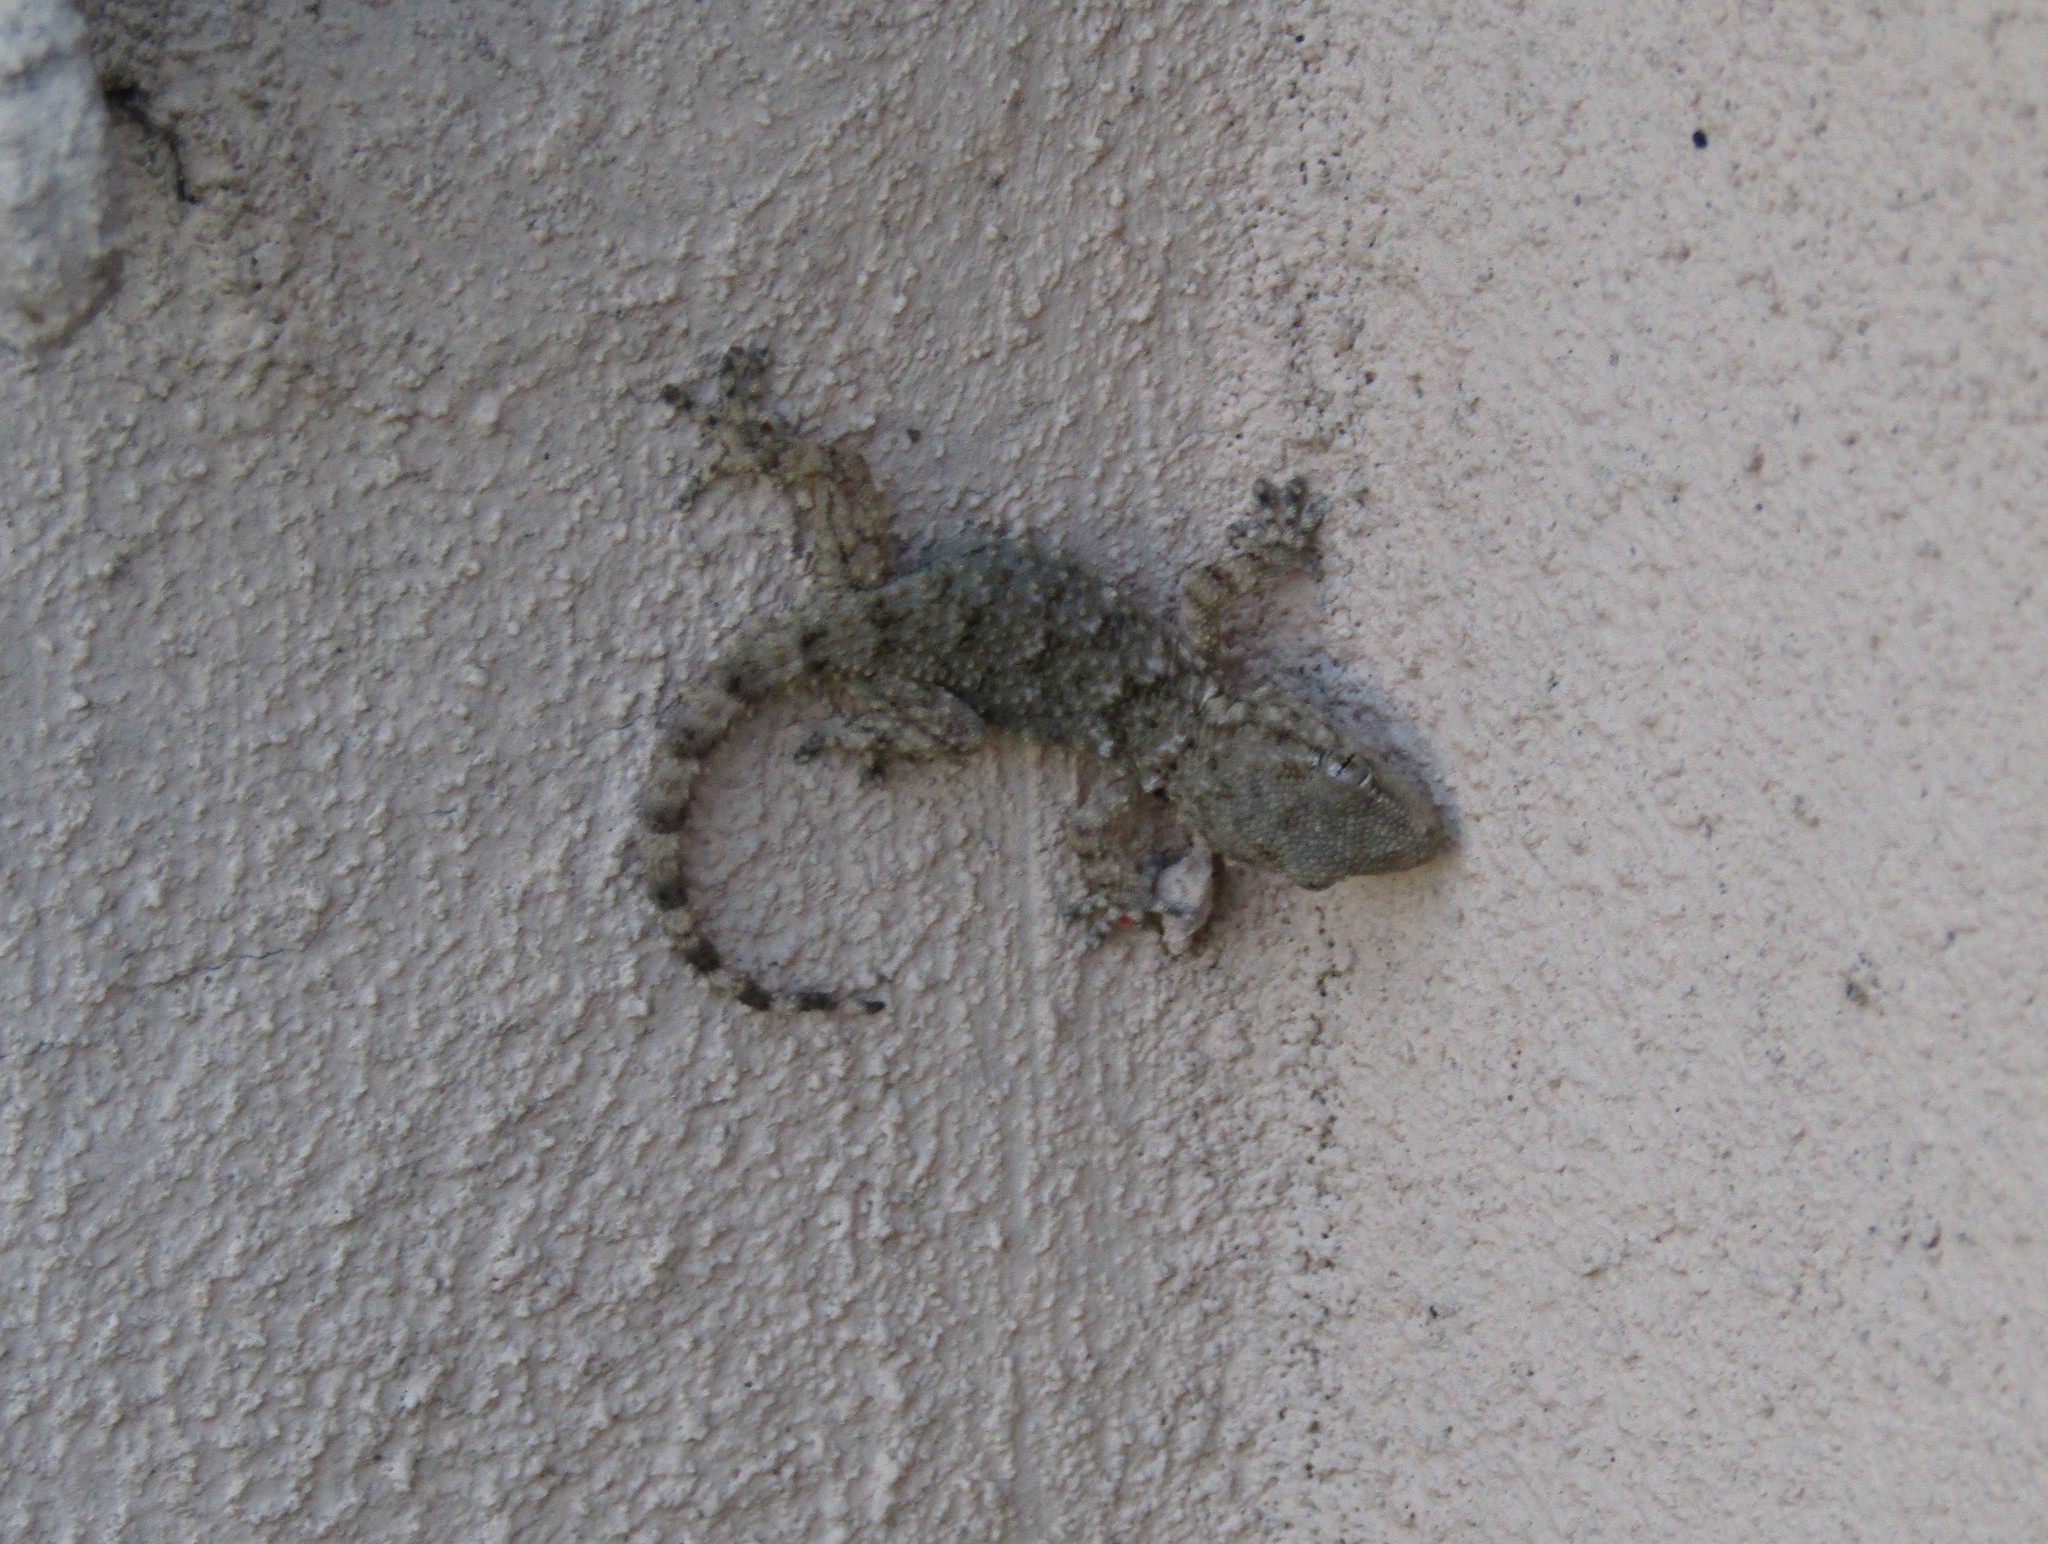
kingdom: Animalia
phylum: Chordata
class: Squamata
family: Phyllodactylidae
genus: Tarentola
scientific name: Tarentola mauritanica
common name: Moorish gecko
